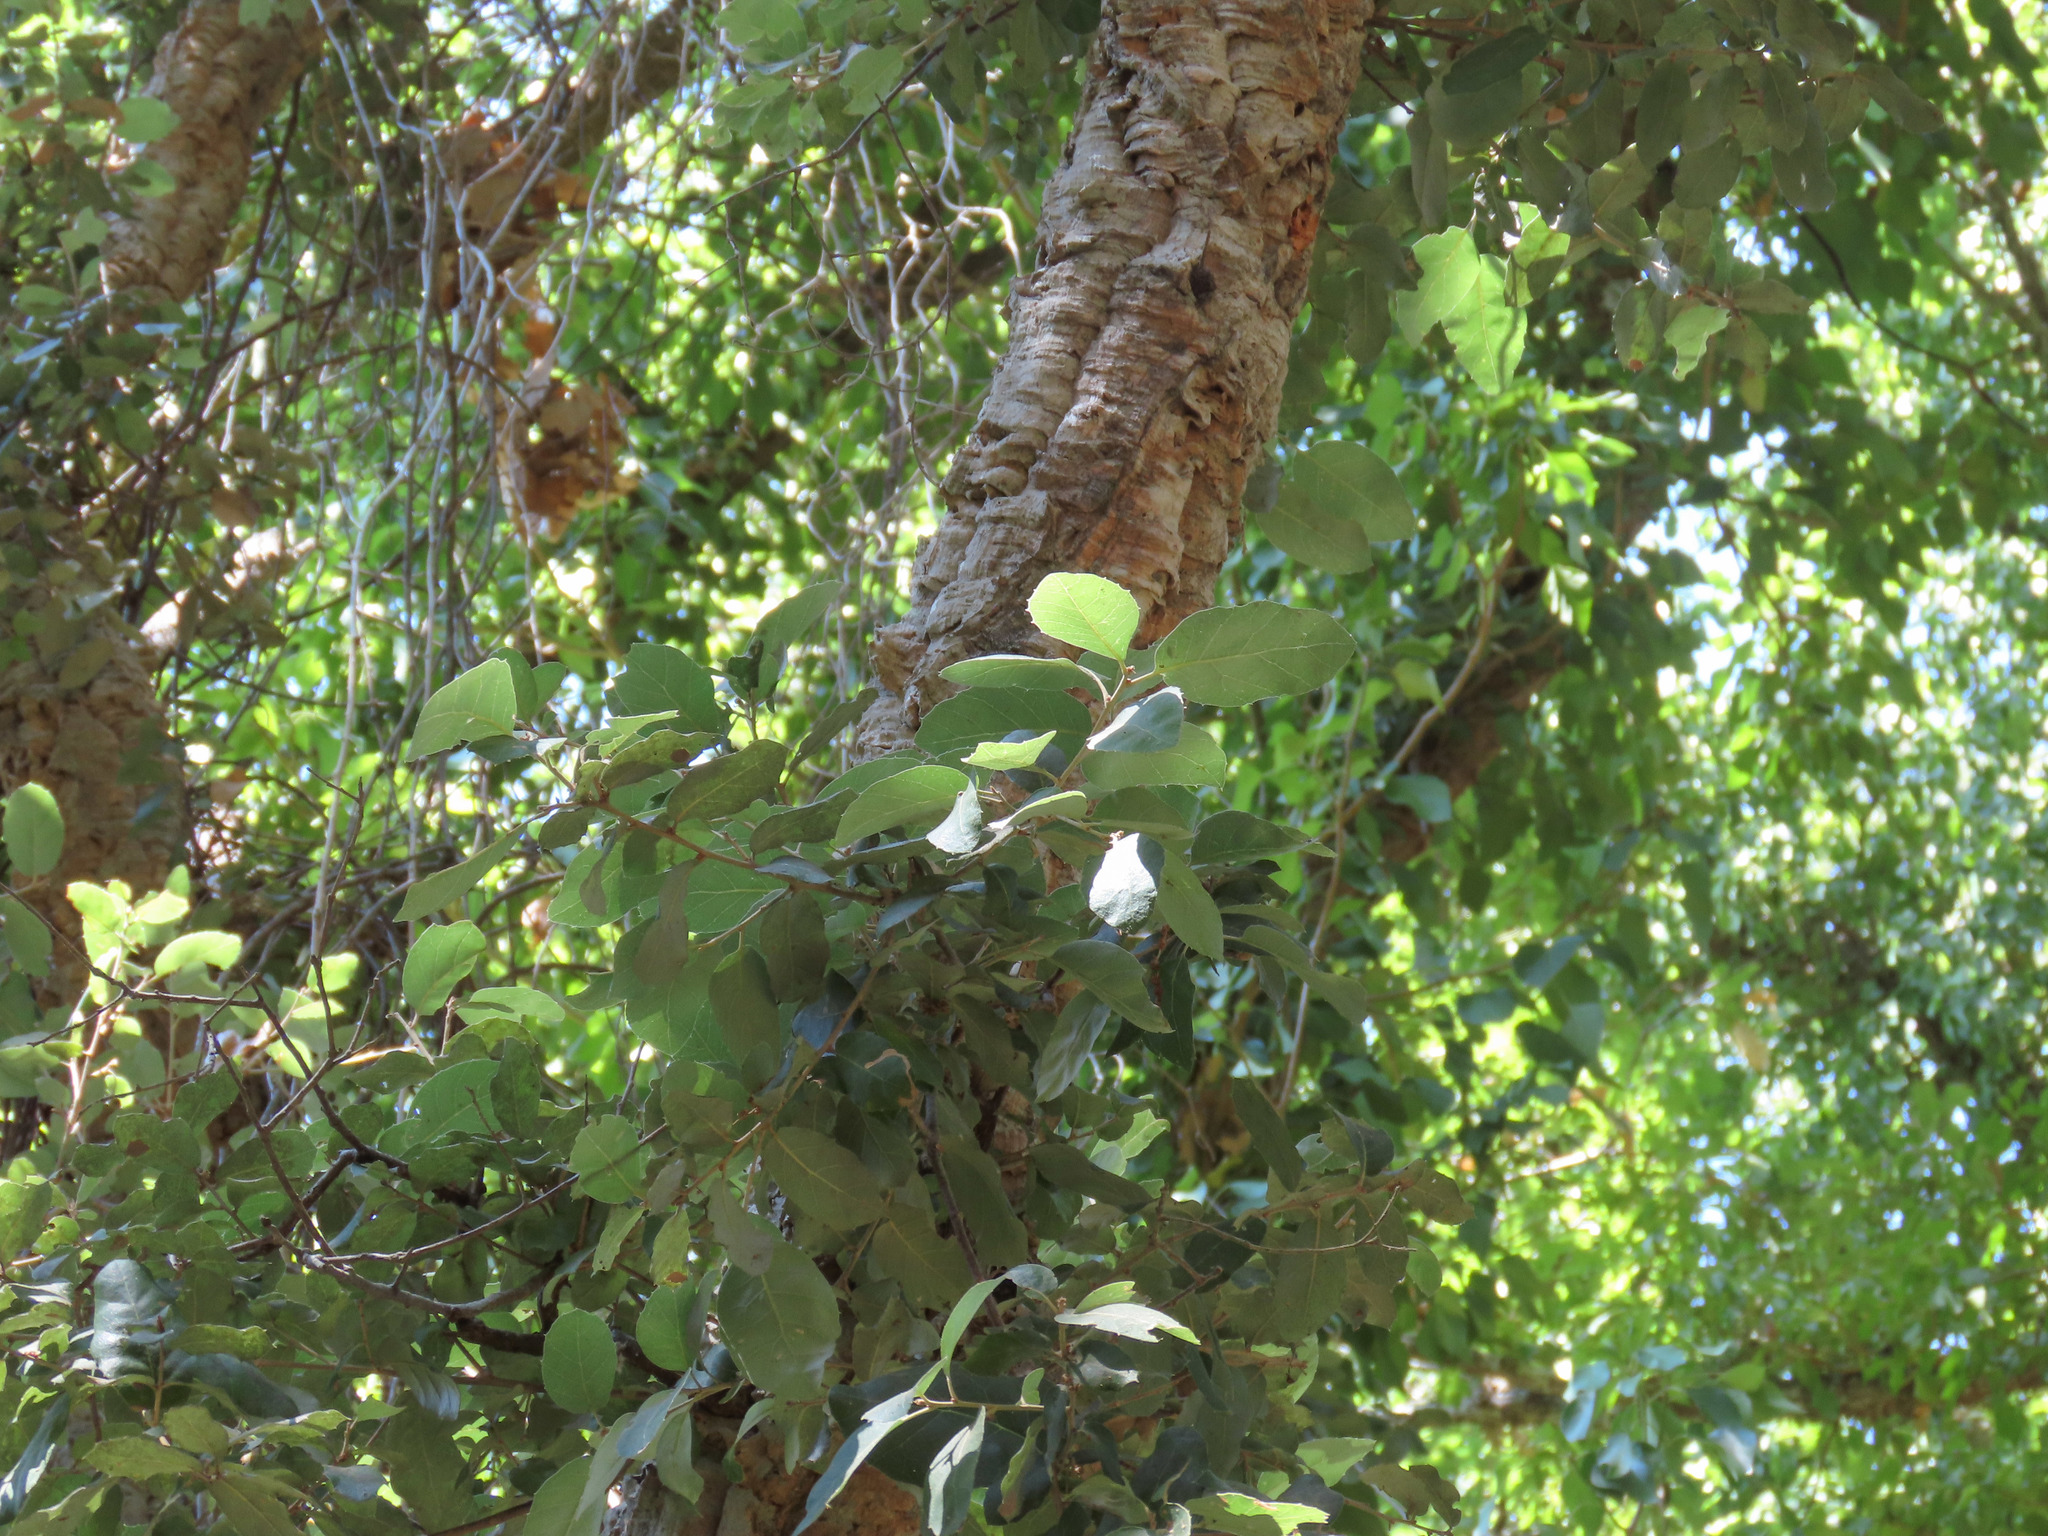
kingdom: Plantae
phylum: Tracheophyta
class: Magnoliopsida
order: Fagales
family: Fagaceae
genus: Quercus
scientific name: Quercus suber
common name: Cork oak
